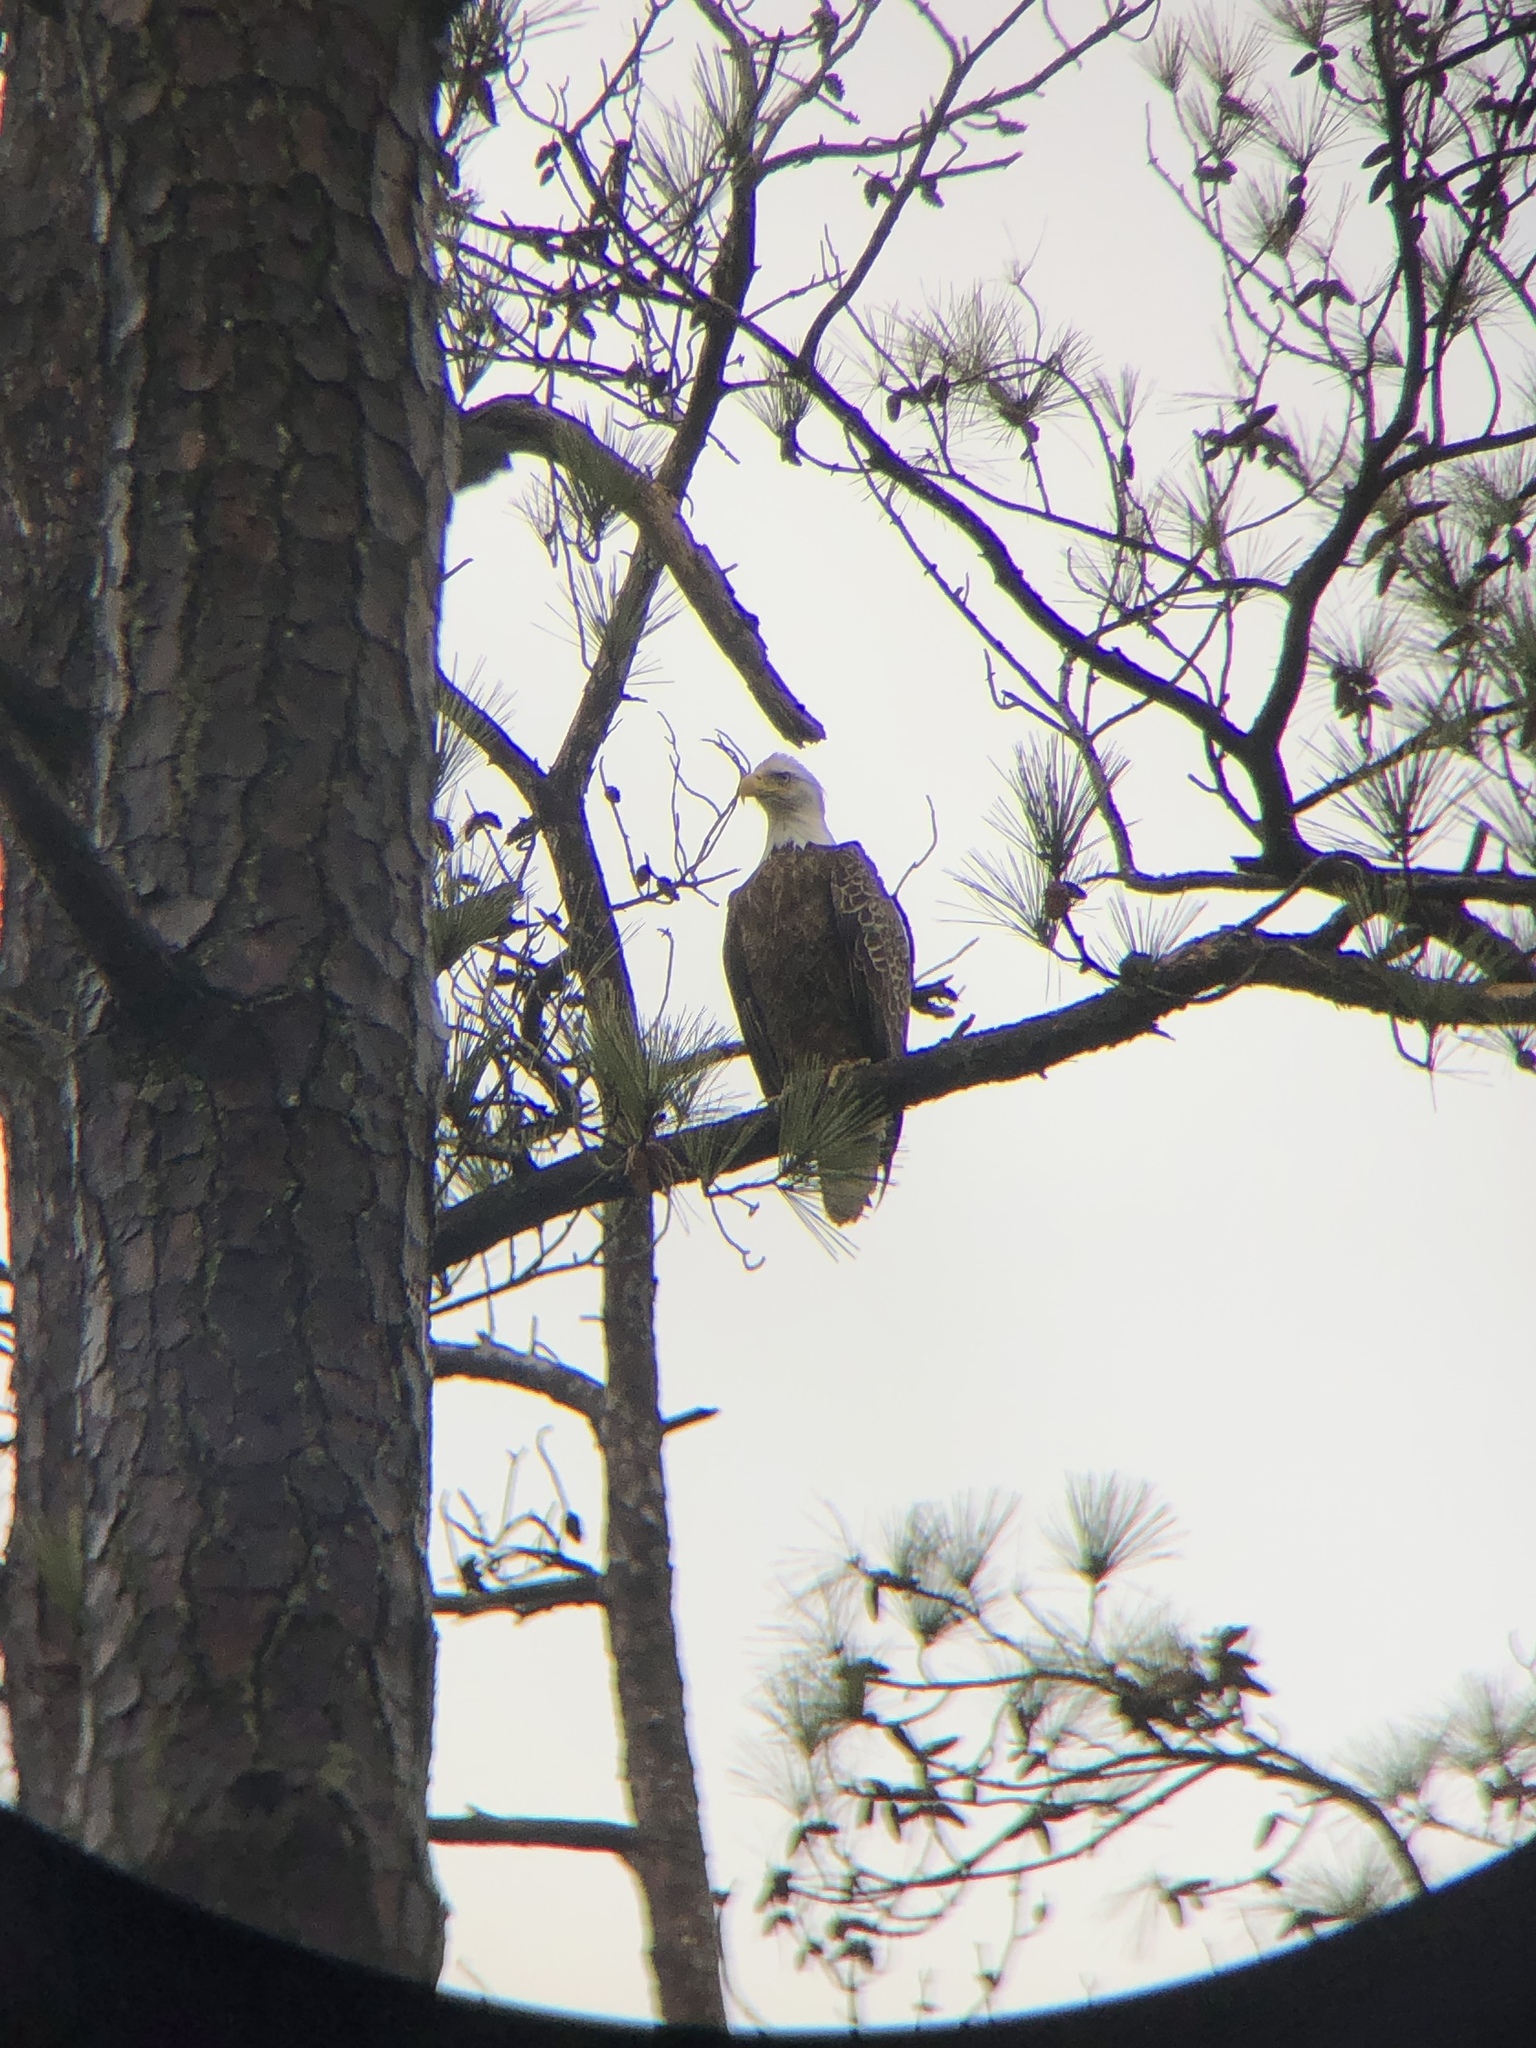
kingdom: Animalia
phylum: Chordata
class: Aves
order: Accipitriformes
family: Accipitridae
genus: Haliaeetus
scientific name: Haliaeetus leucocephalus
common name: Bald eagle
